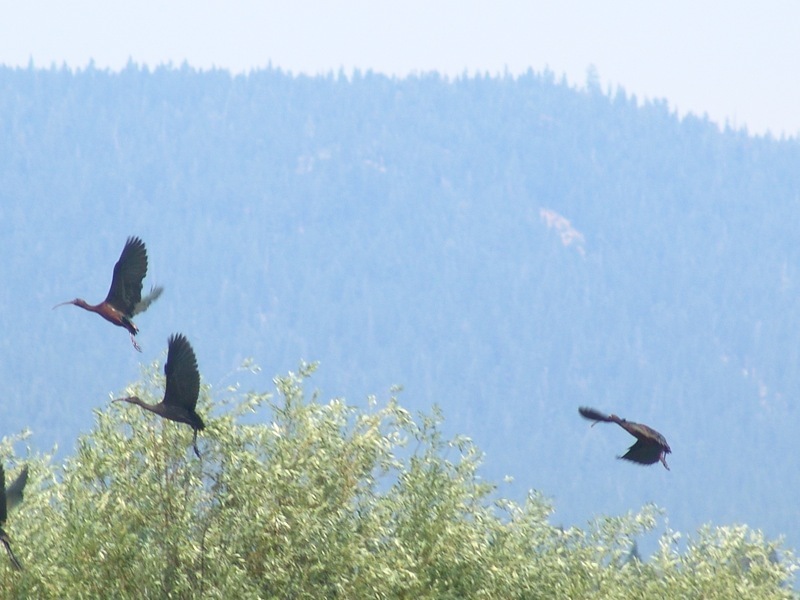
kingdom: Animalia
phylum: Chordata
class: Aves
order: Pelecaniformes
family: Threskiornithidae
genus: Plegadis
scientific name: Plegadis chihi
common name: White-faced ibis
